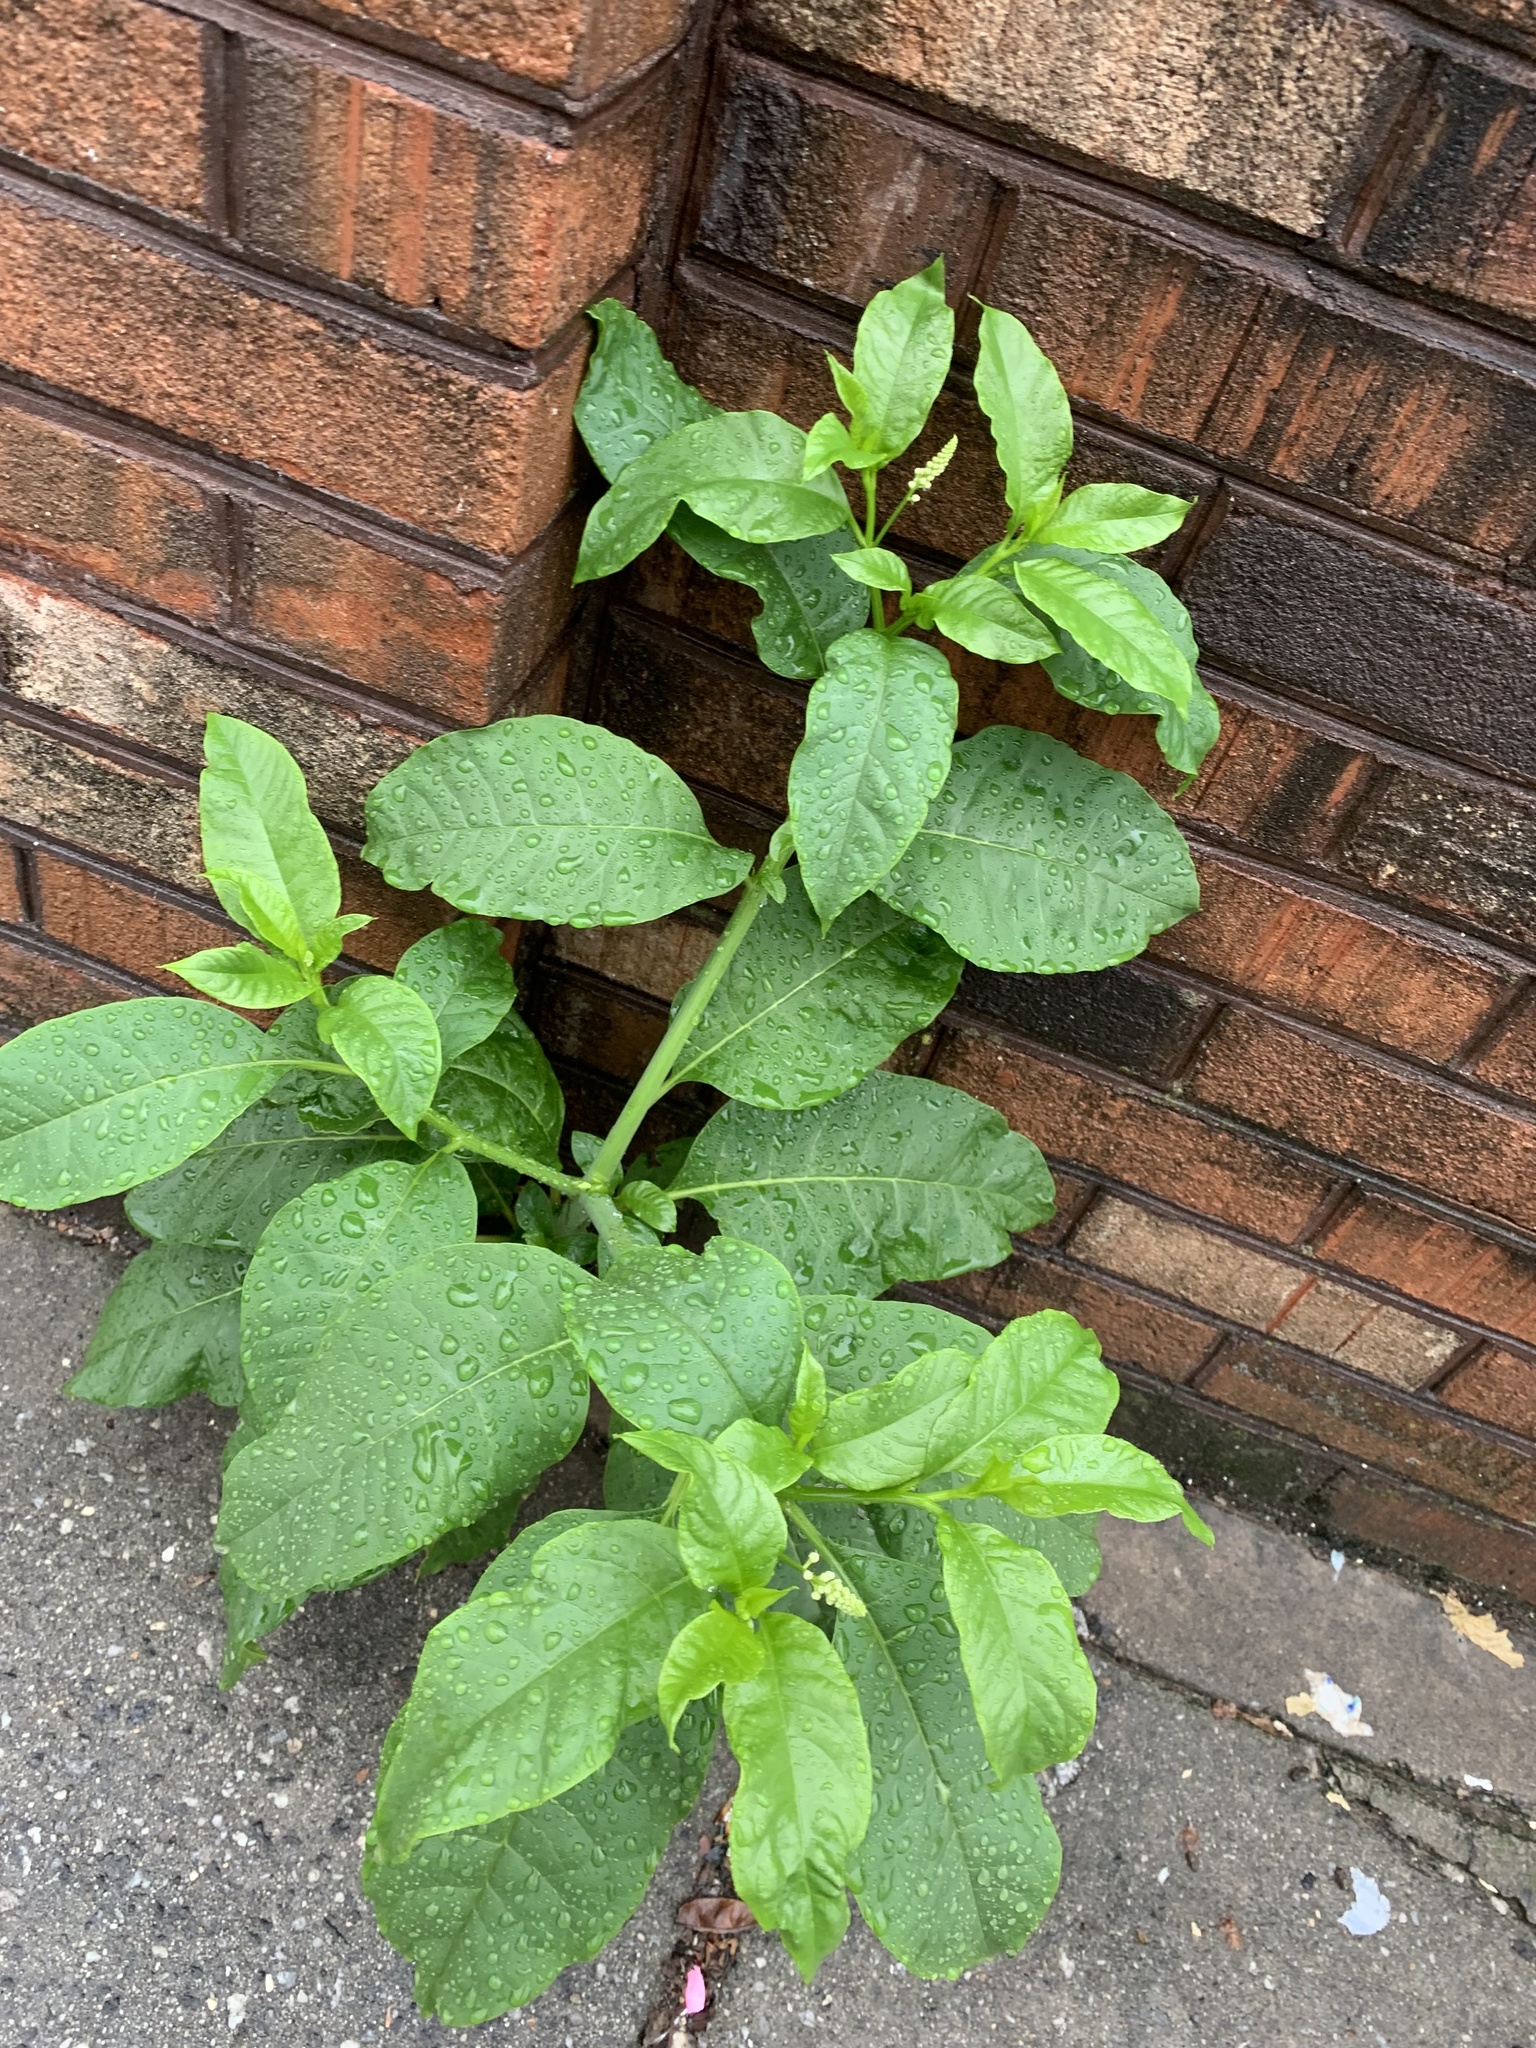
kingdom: Plantae
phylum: Tracheophyta
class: Magnoliopsida
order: Caryophyllales
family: Phytolaccaceae
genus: Phytolacca
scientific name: Phytolacca americana
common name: American pokeweed
